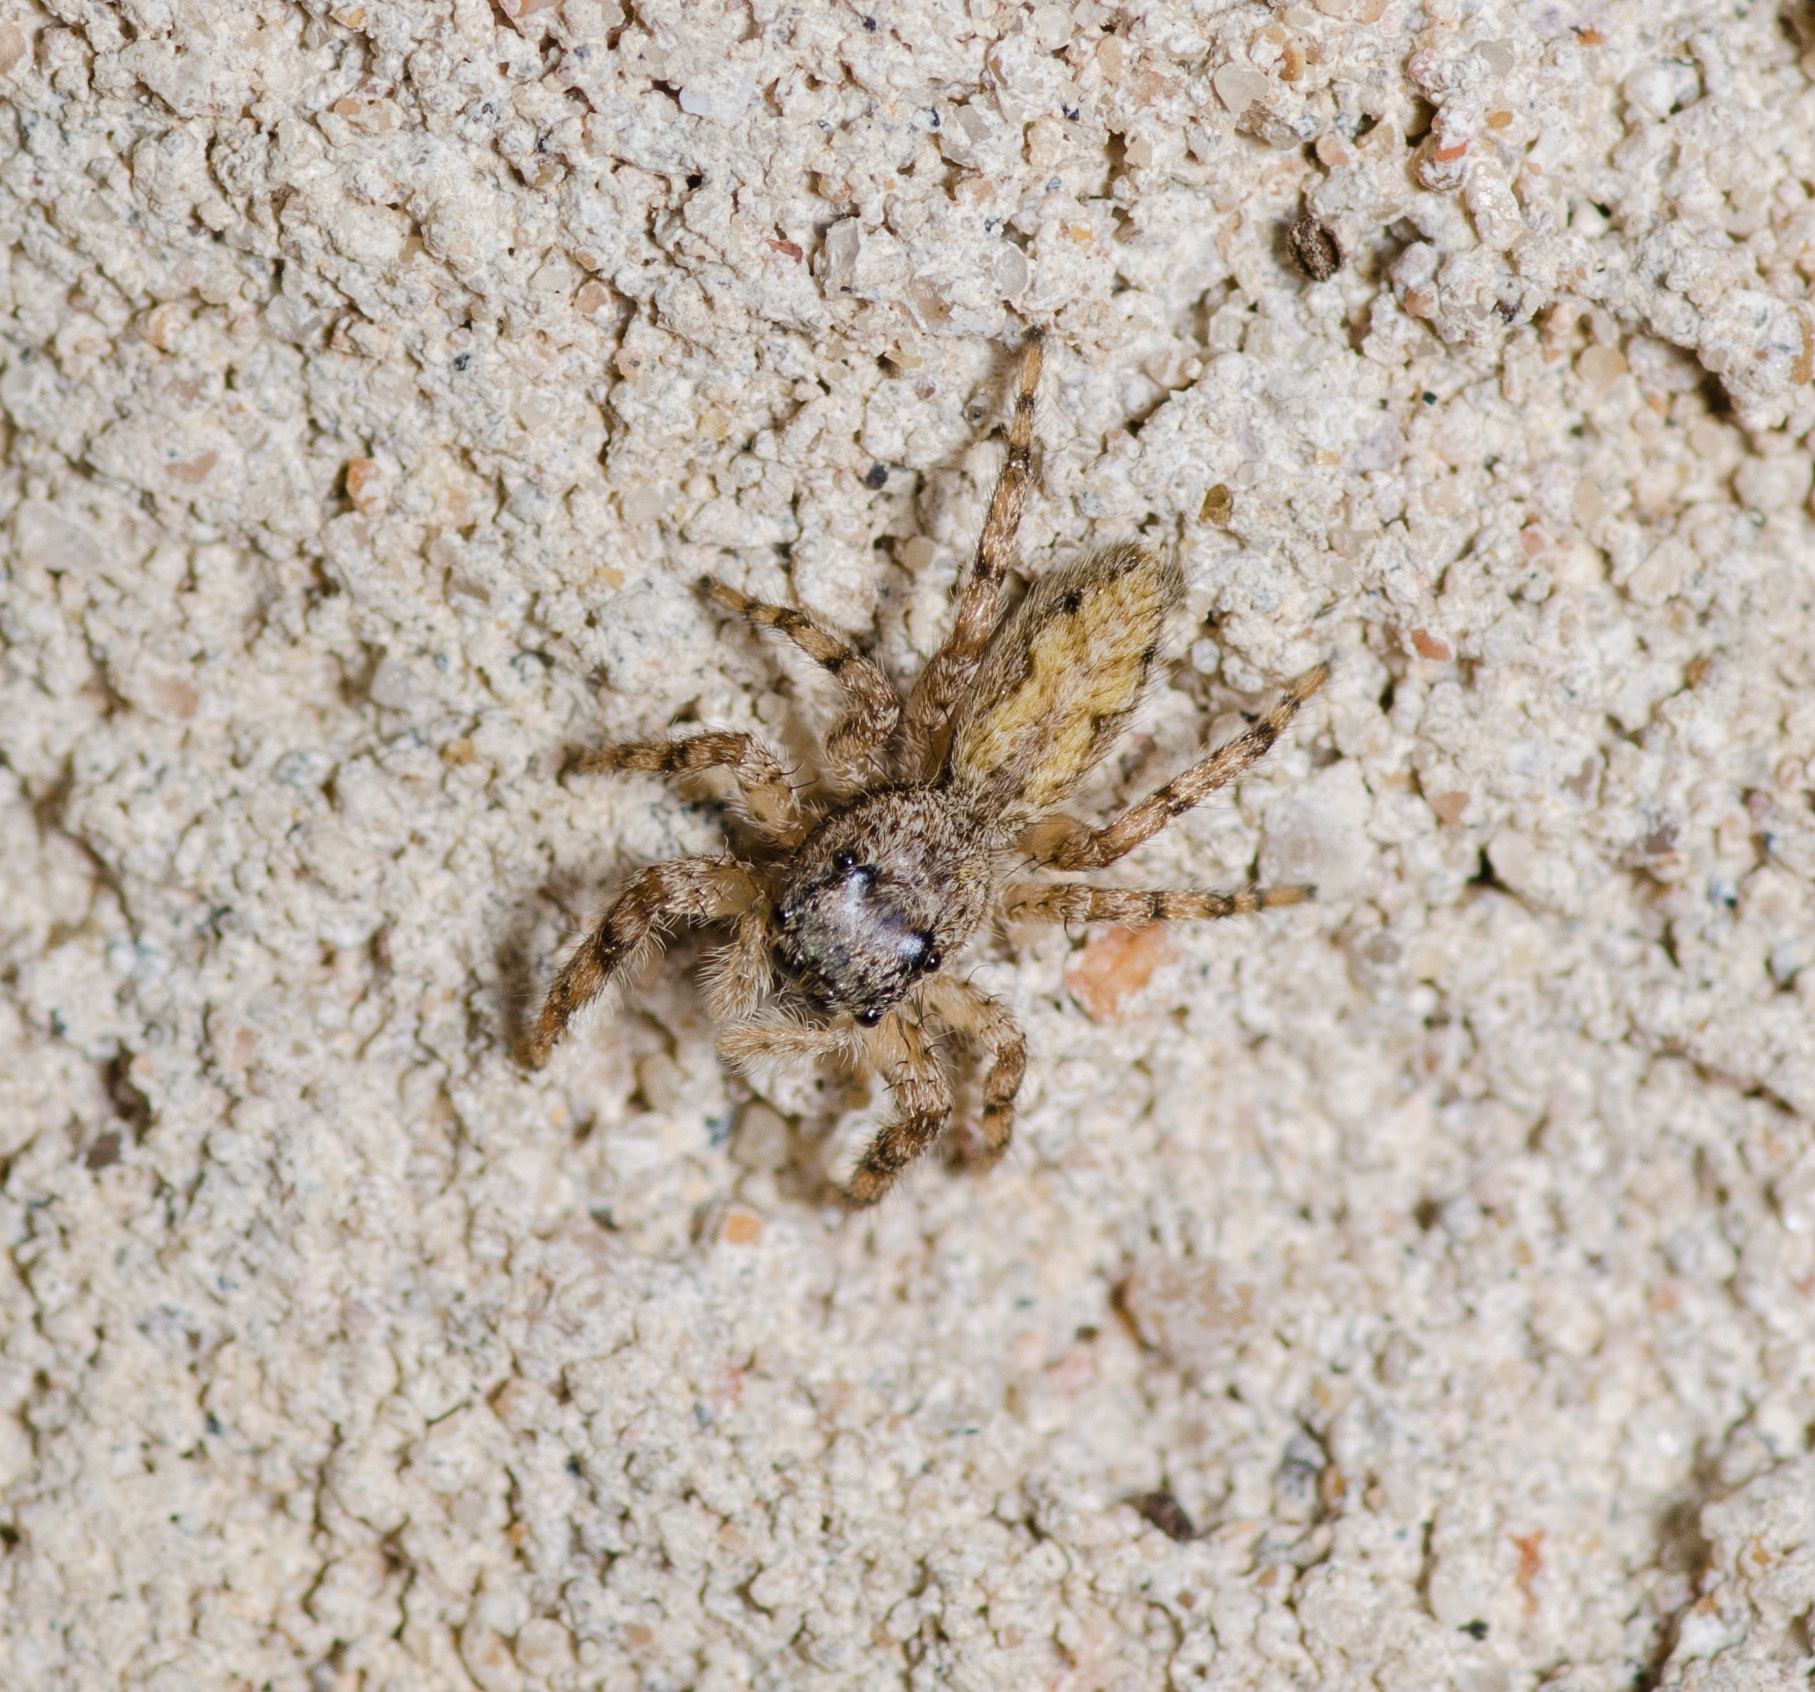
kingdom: Animalia
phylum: Arthropoda
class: Arachnida
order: Araneae
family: Salticidae
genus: Platycryptus
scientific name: Platycryptus undatus
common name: Tan jumping spider
